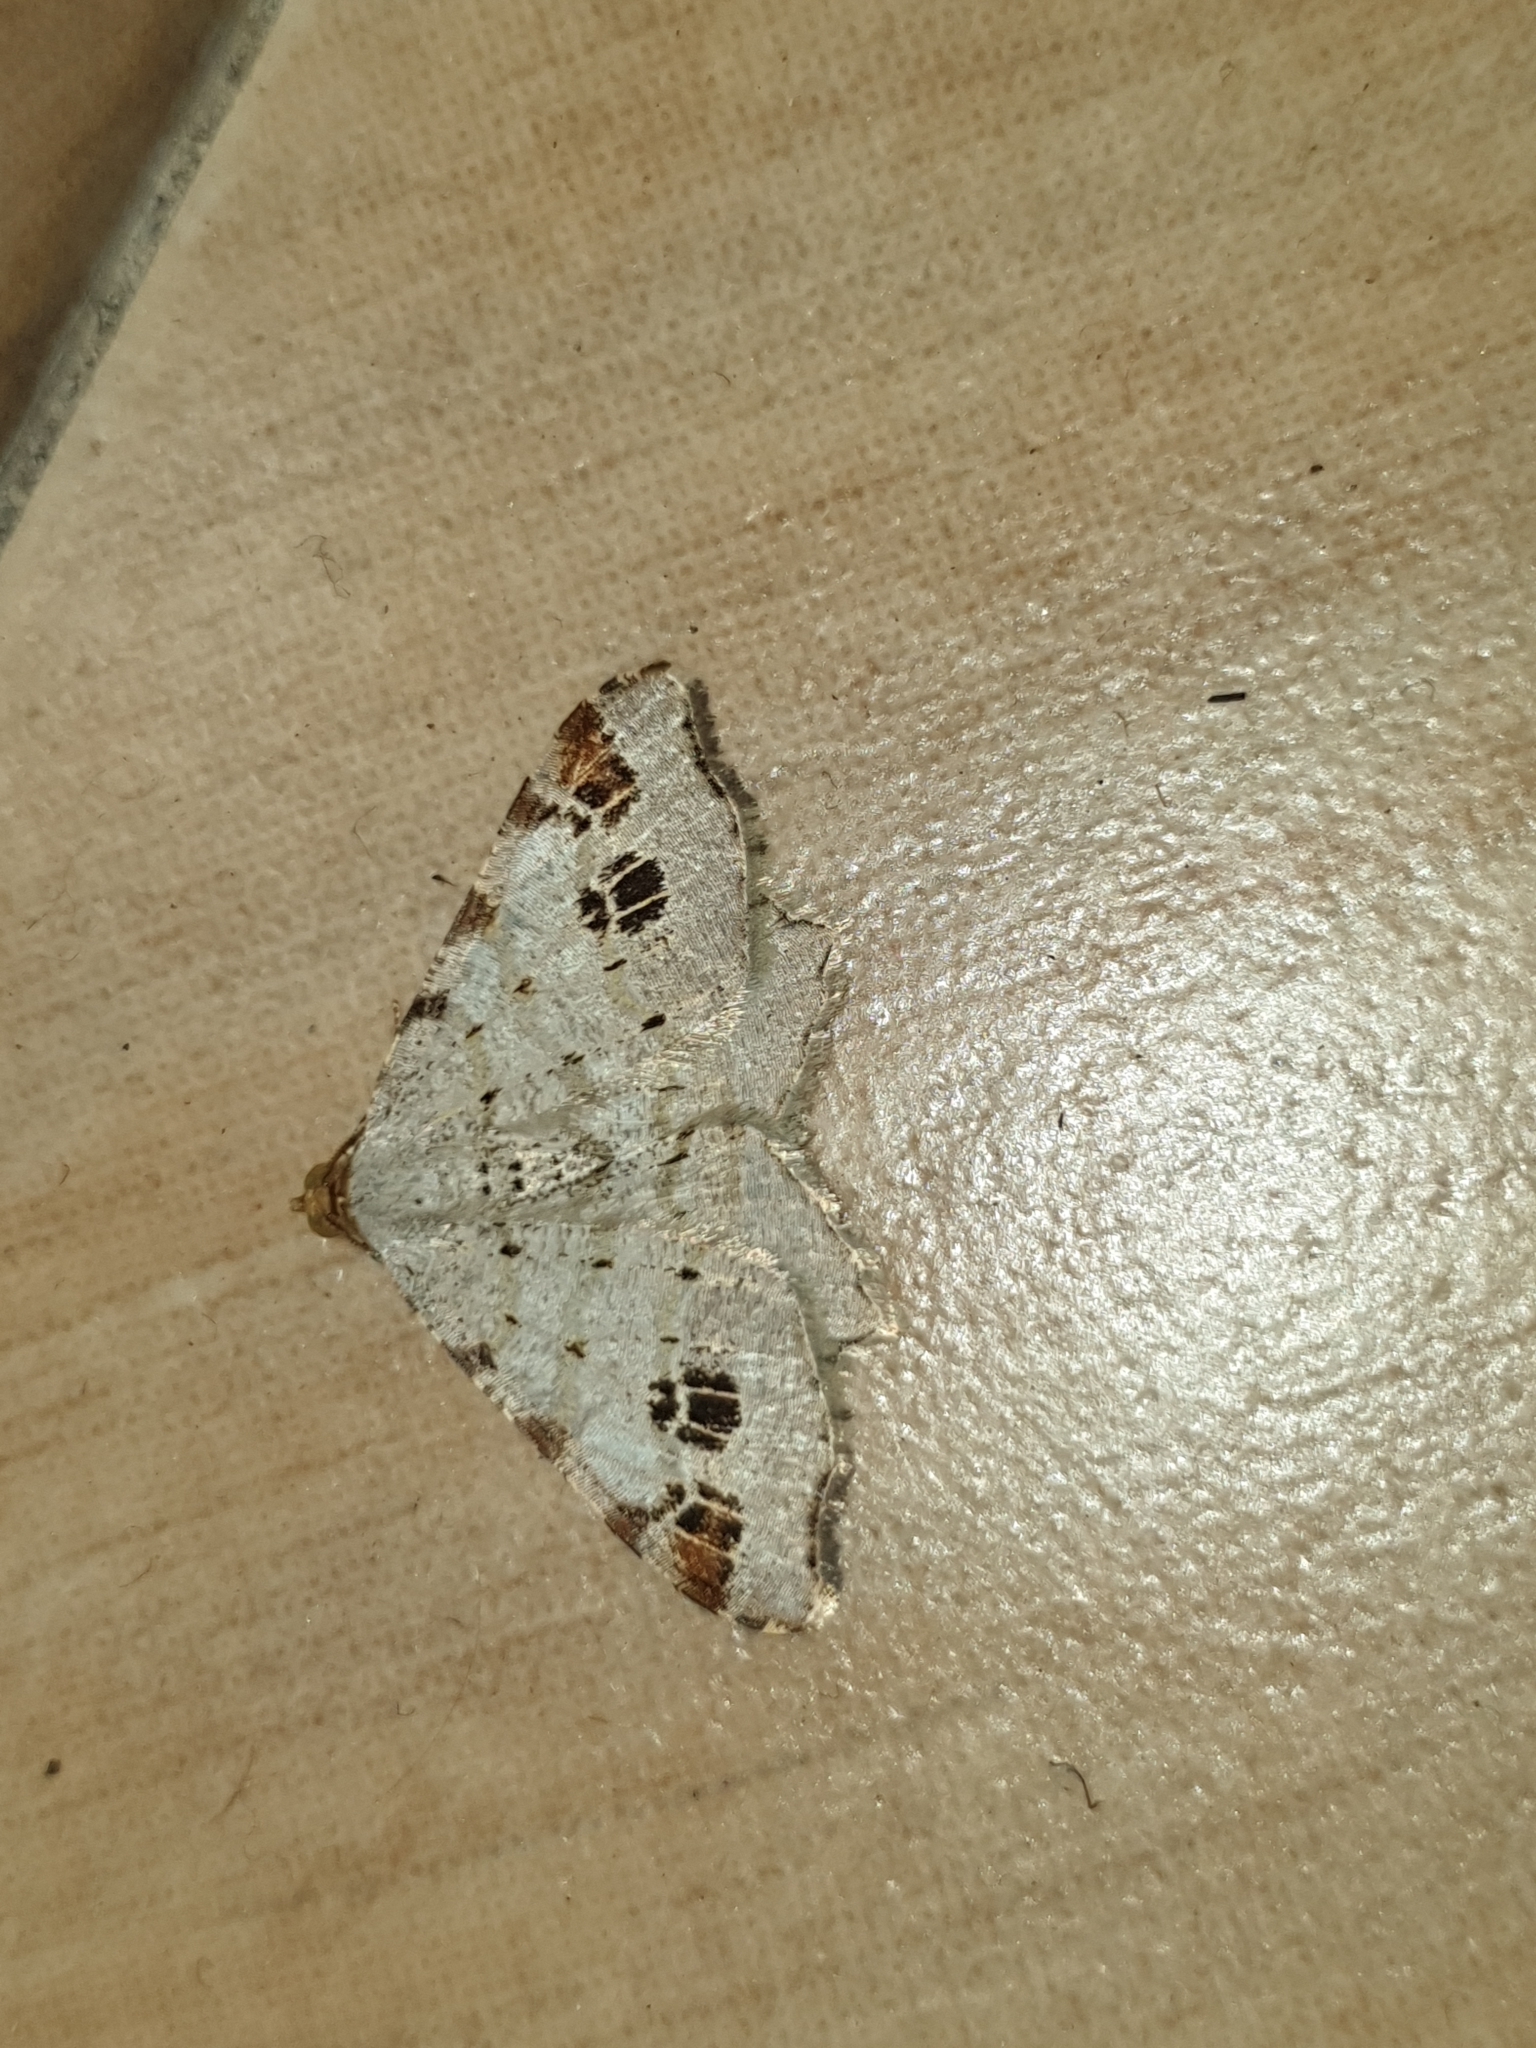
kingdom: Animalia
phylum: Arthropoda
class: Insecta
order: Lepidoptera
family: Geometridae
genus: Macaria
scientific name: Macaria notata
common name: Peacock moth
